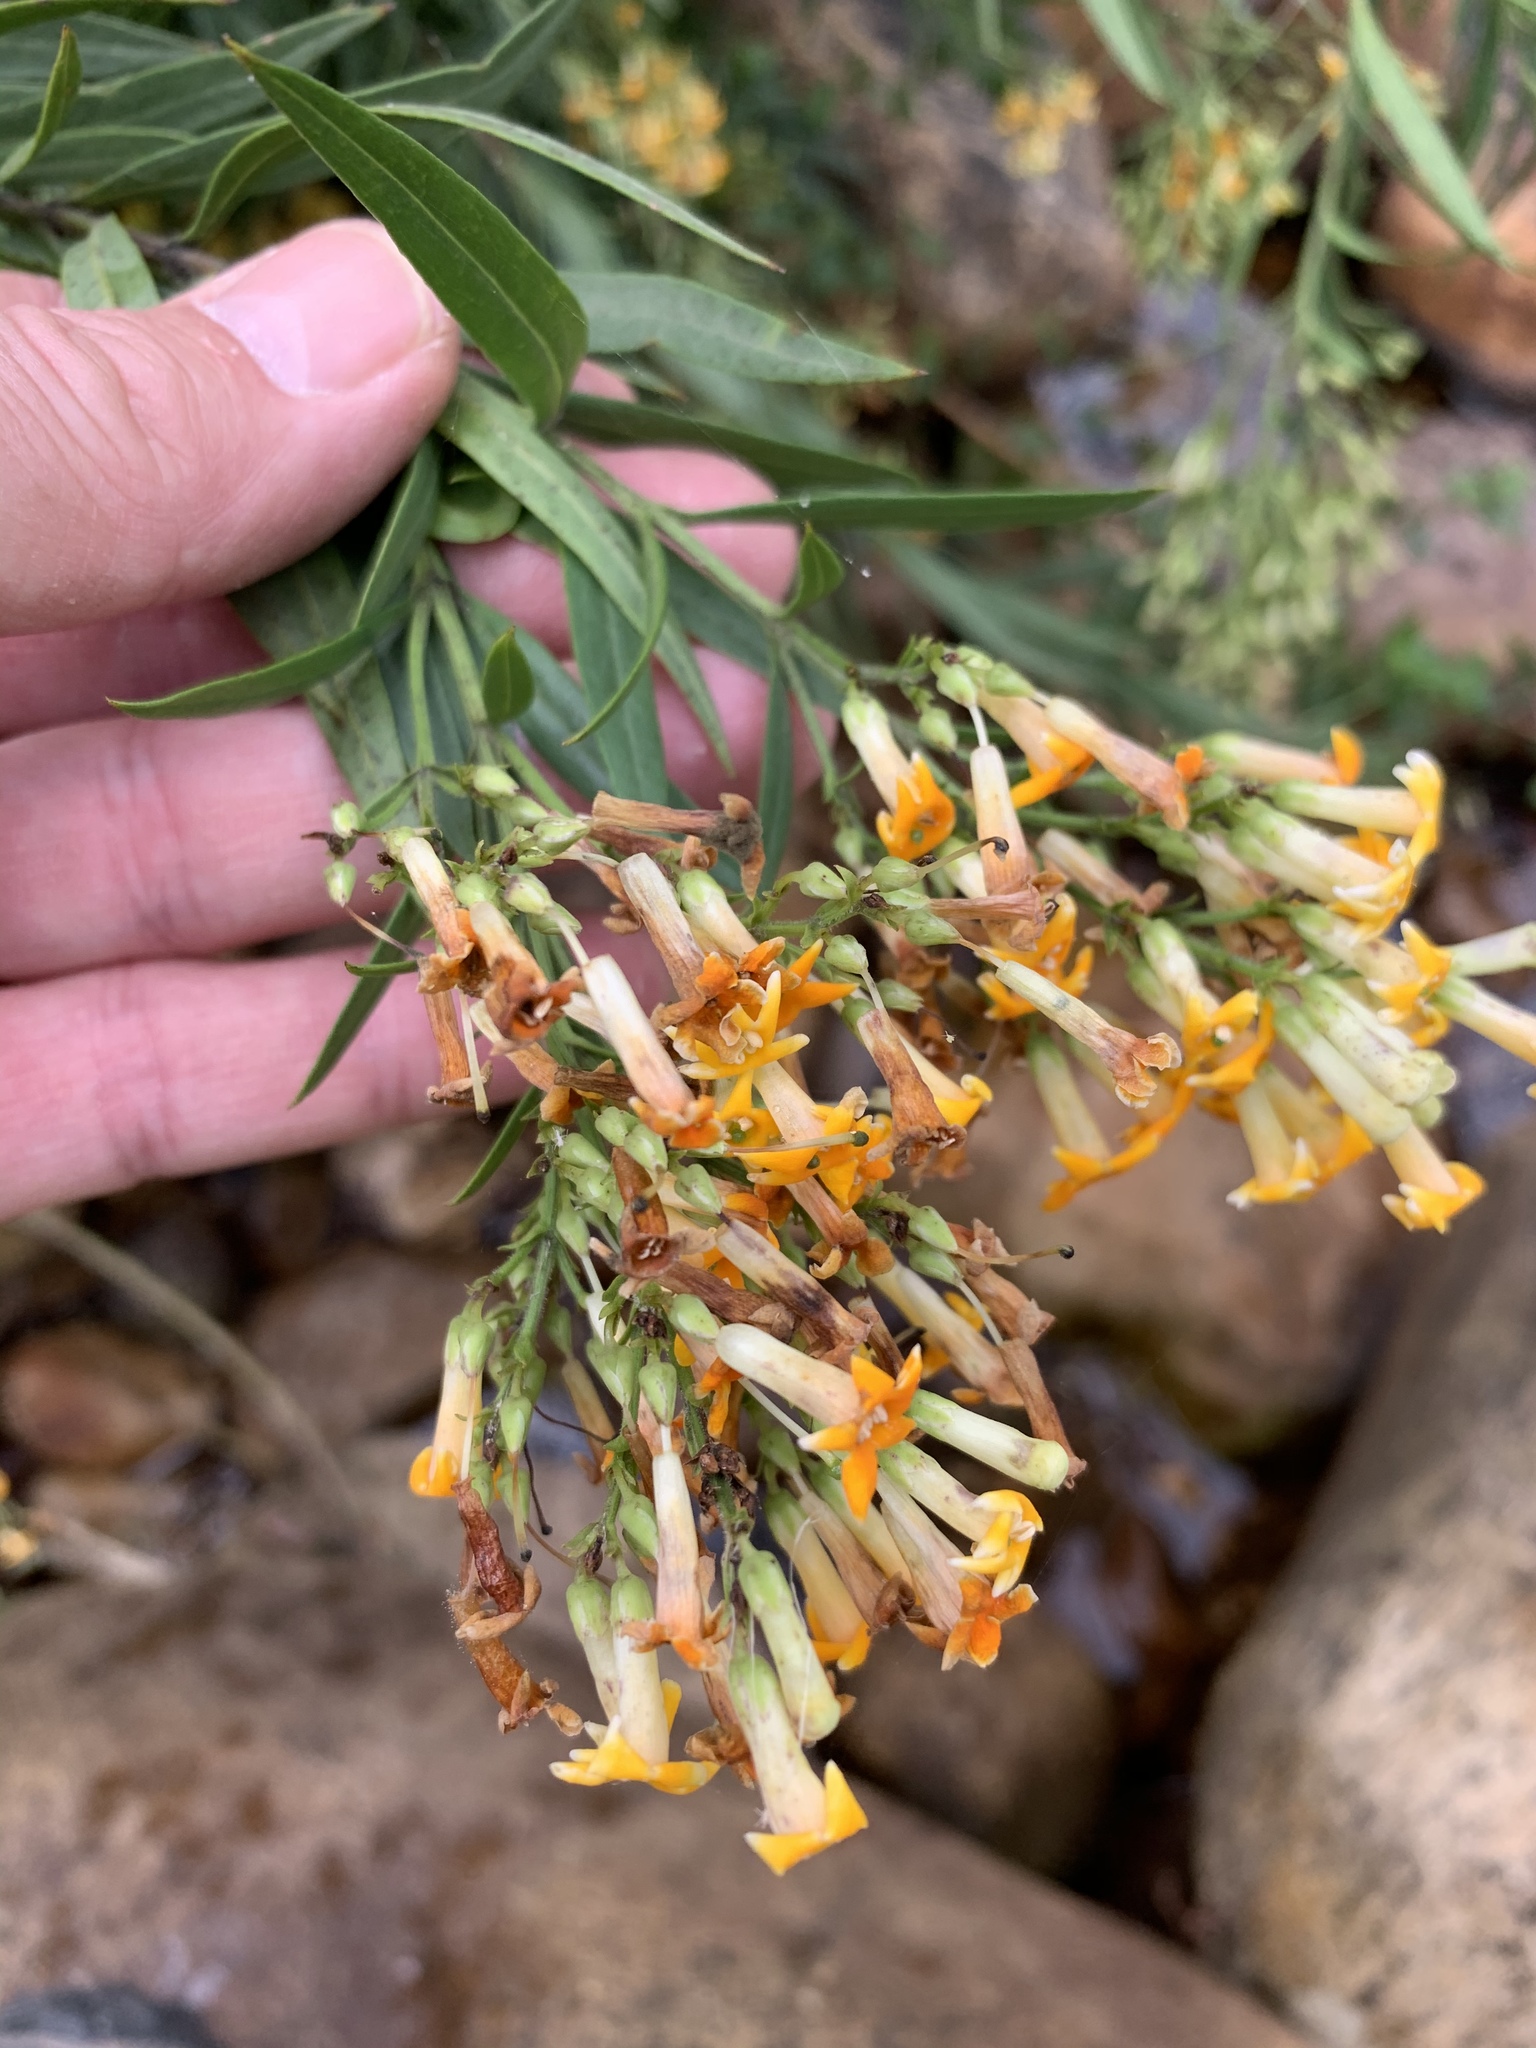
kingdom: Plantae
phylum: Tracheophyta
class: Magnoliopsida
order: Lamiales
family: Scrophulariaceae
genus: Freylinia
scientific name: Freylinia lanceolata
